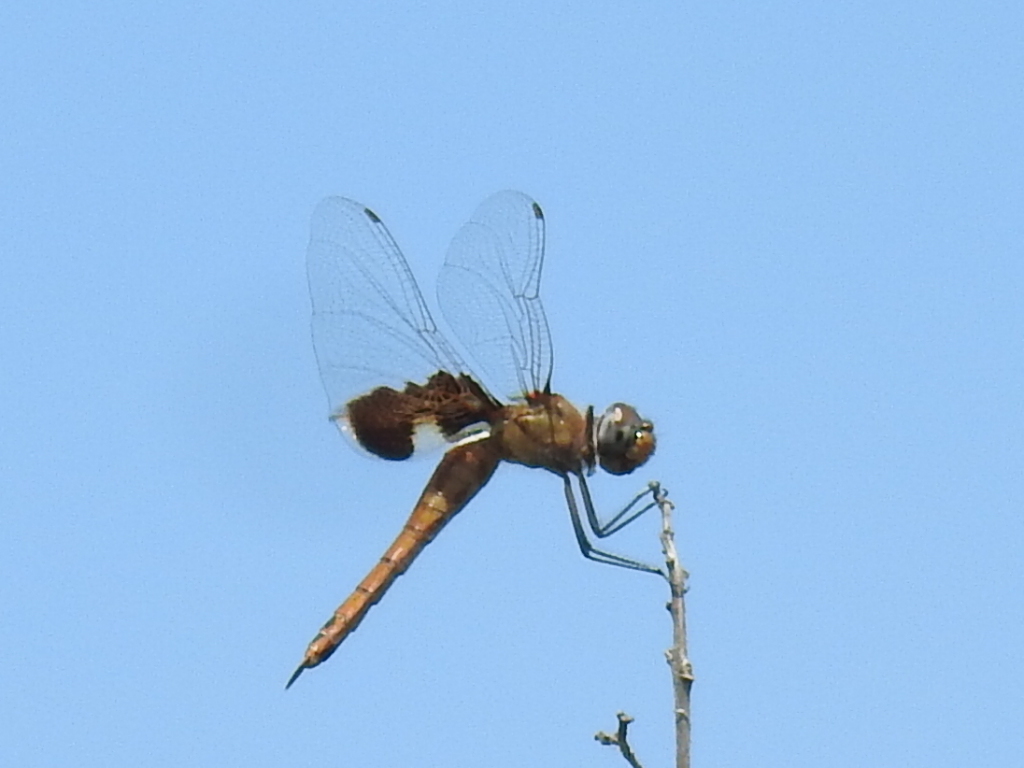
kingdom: Animalia
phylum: Arthropoda
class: Insecta
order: Odonata
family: Libellulidae
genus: Tramea
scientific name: Tramea onusta
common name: Red saddlebags
